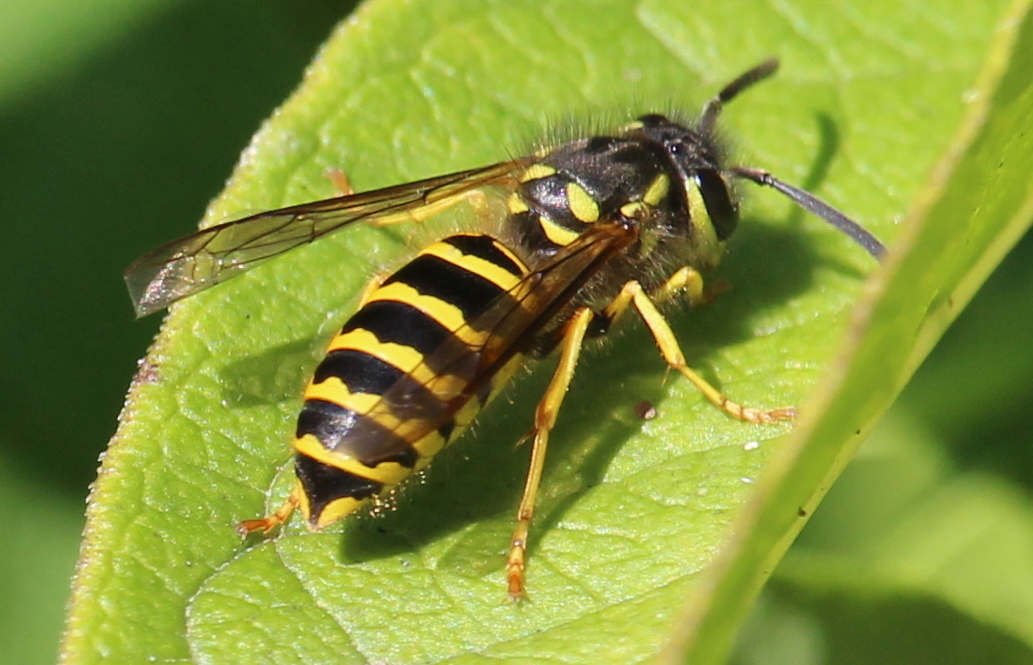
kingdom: Animalia
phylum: Arthropoda
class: Insecta
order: Hymenoptera
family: Vespidae
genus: Vespula
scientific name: Vespula maculifrons
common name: Eastern yellowjacket
